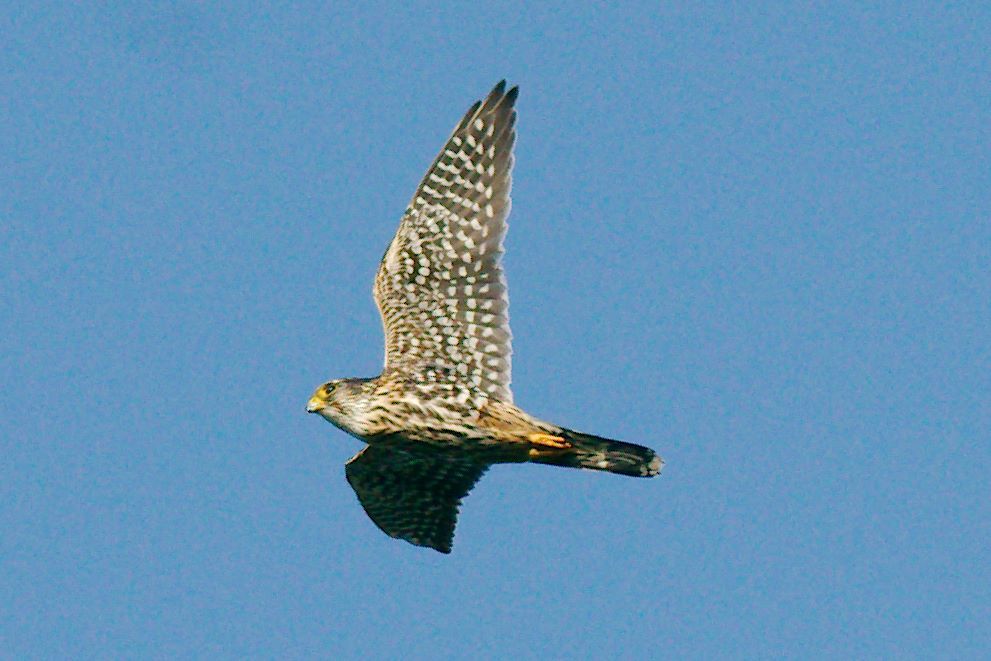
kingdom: Animalia
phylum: Chordata
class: Aves
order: Falconiformes
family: Falconidae
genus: Falco
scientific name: Falco columbarius
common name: Merlin
